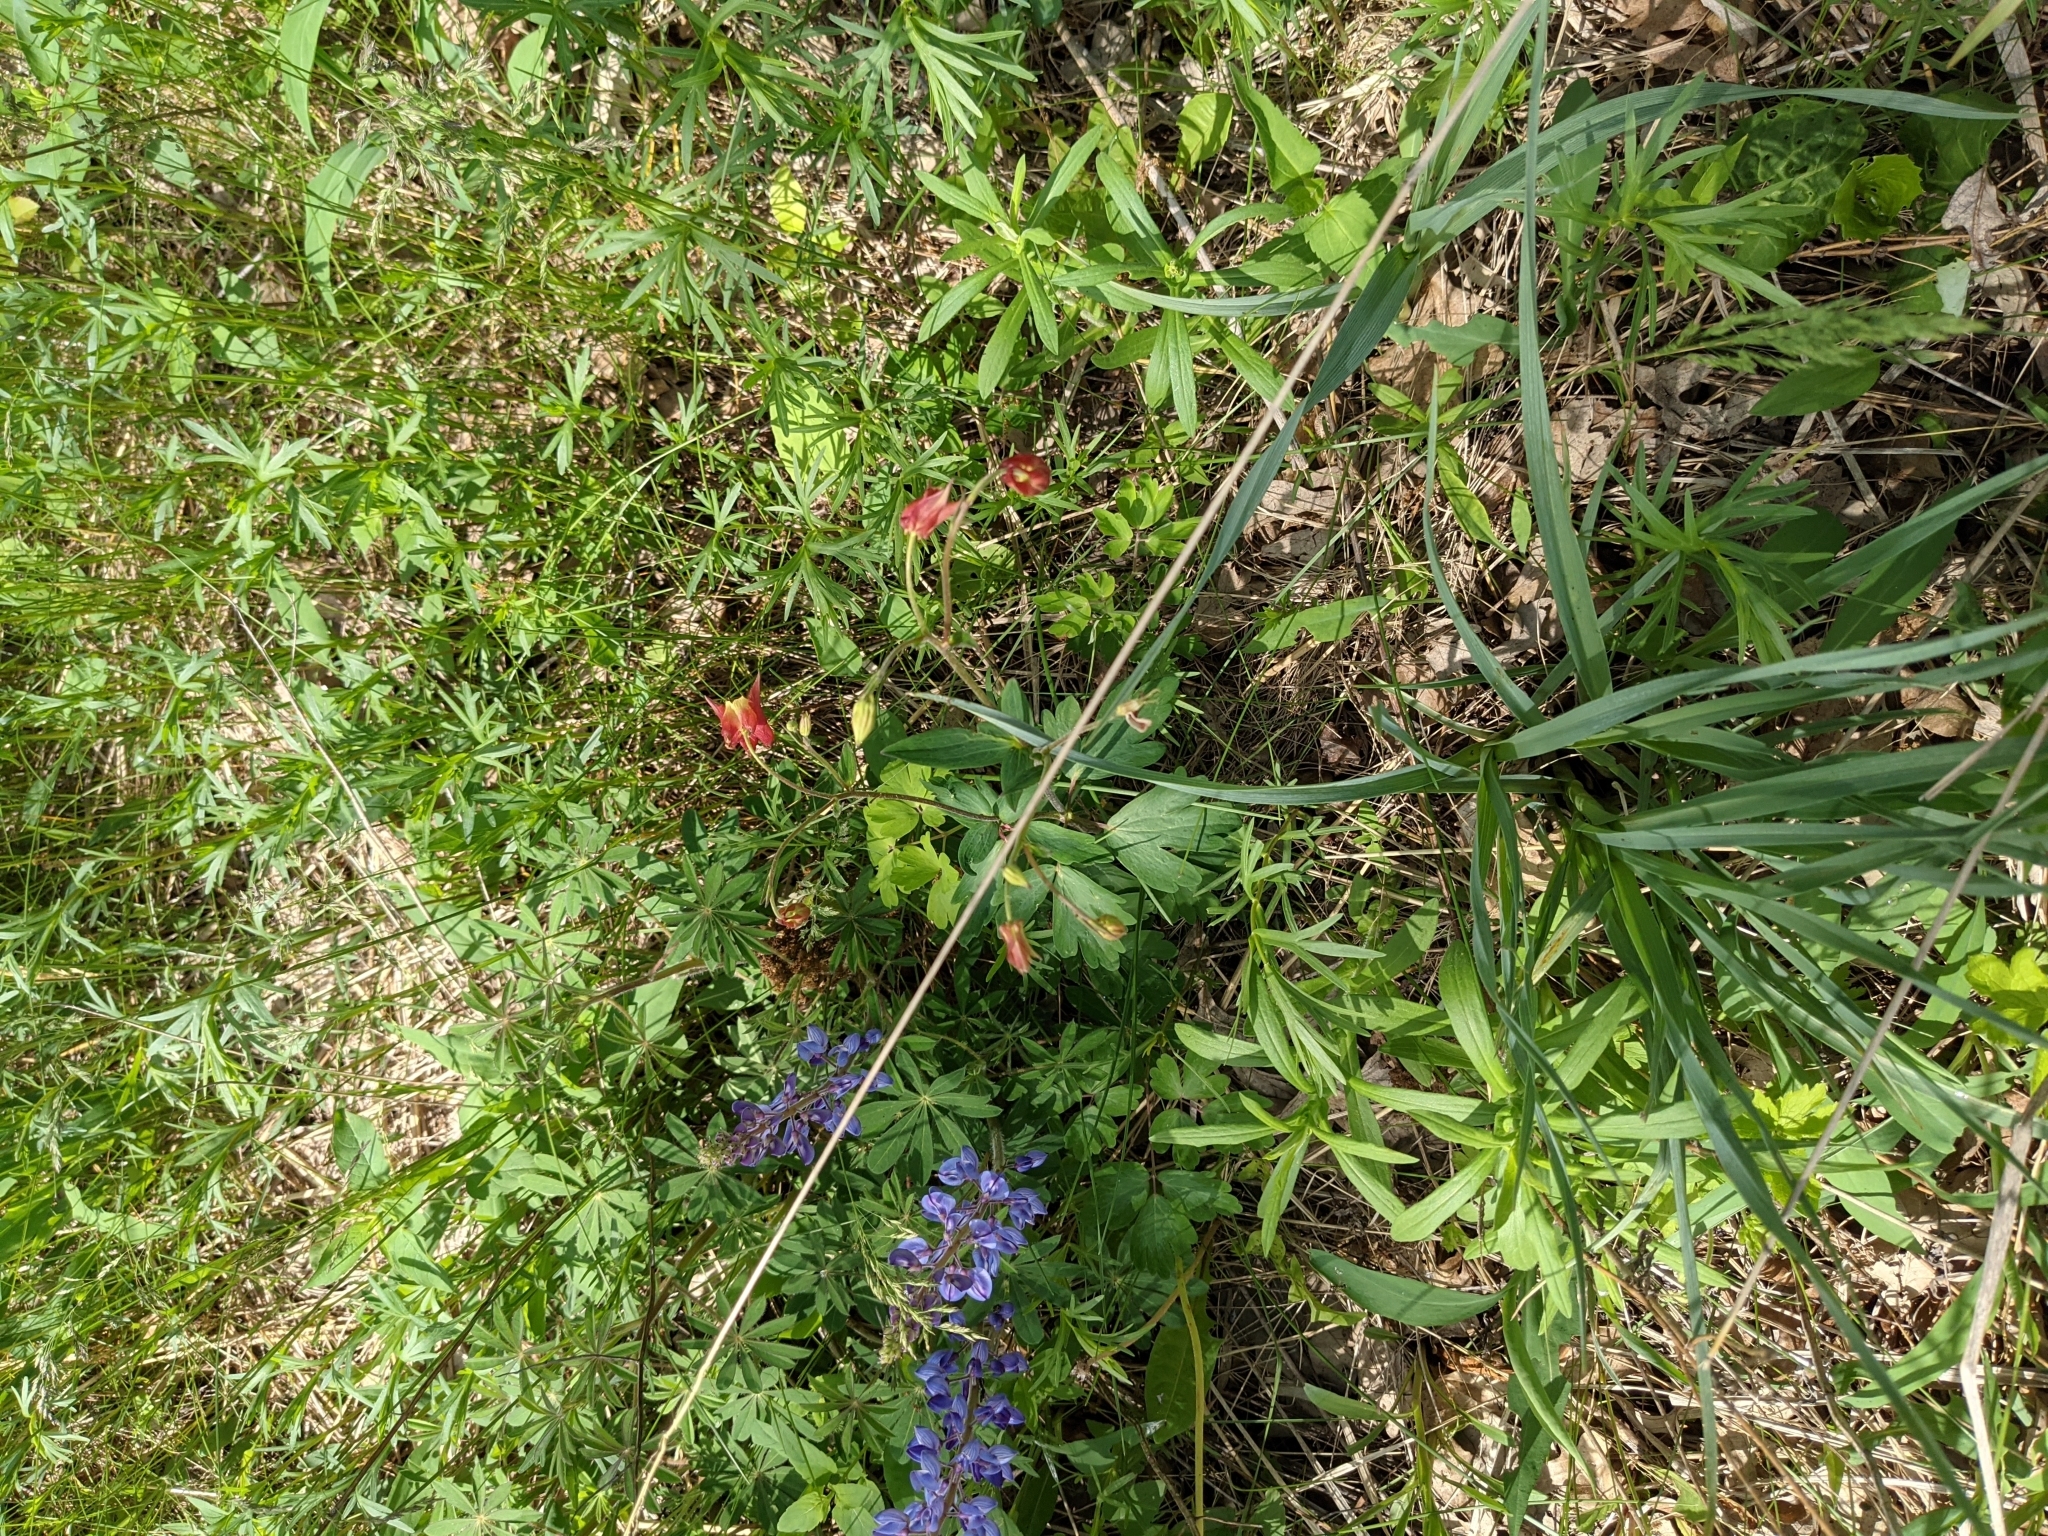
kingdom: Plantae
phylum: Tracheophyta
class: Magnoliopsida
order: Ranunculales
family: Ranunculaceae
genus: Aquilegia
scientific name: Aquilegia canadensis
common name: American columbine
